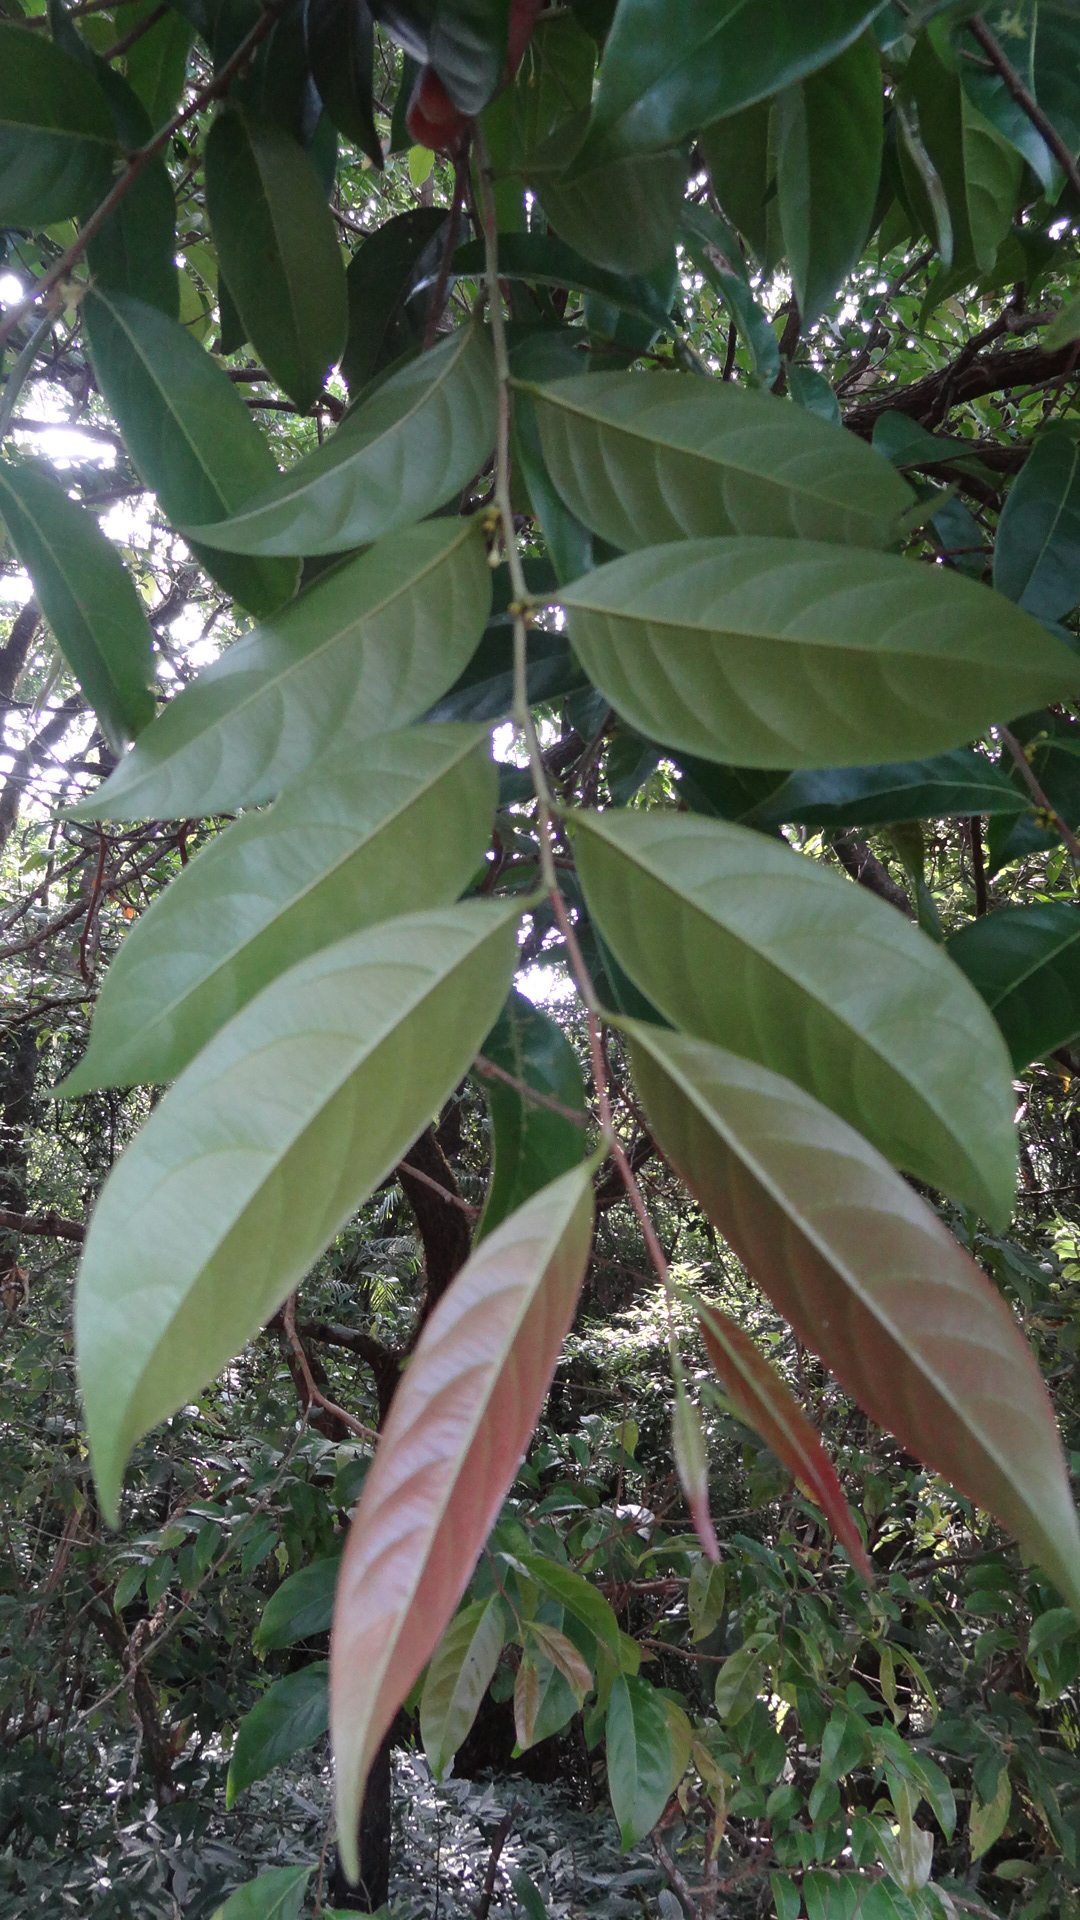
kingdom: Plantae
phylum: Tracheophyta
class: Magnoliopsida
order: Malpighiales
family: Phyllanthaceae
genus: Glochidion
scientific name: Glochidion ellipticum
